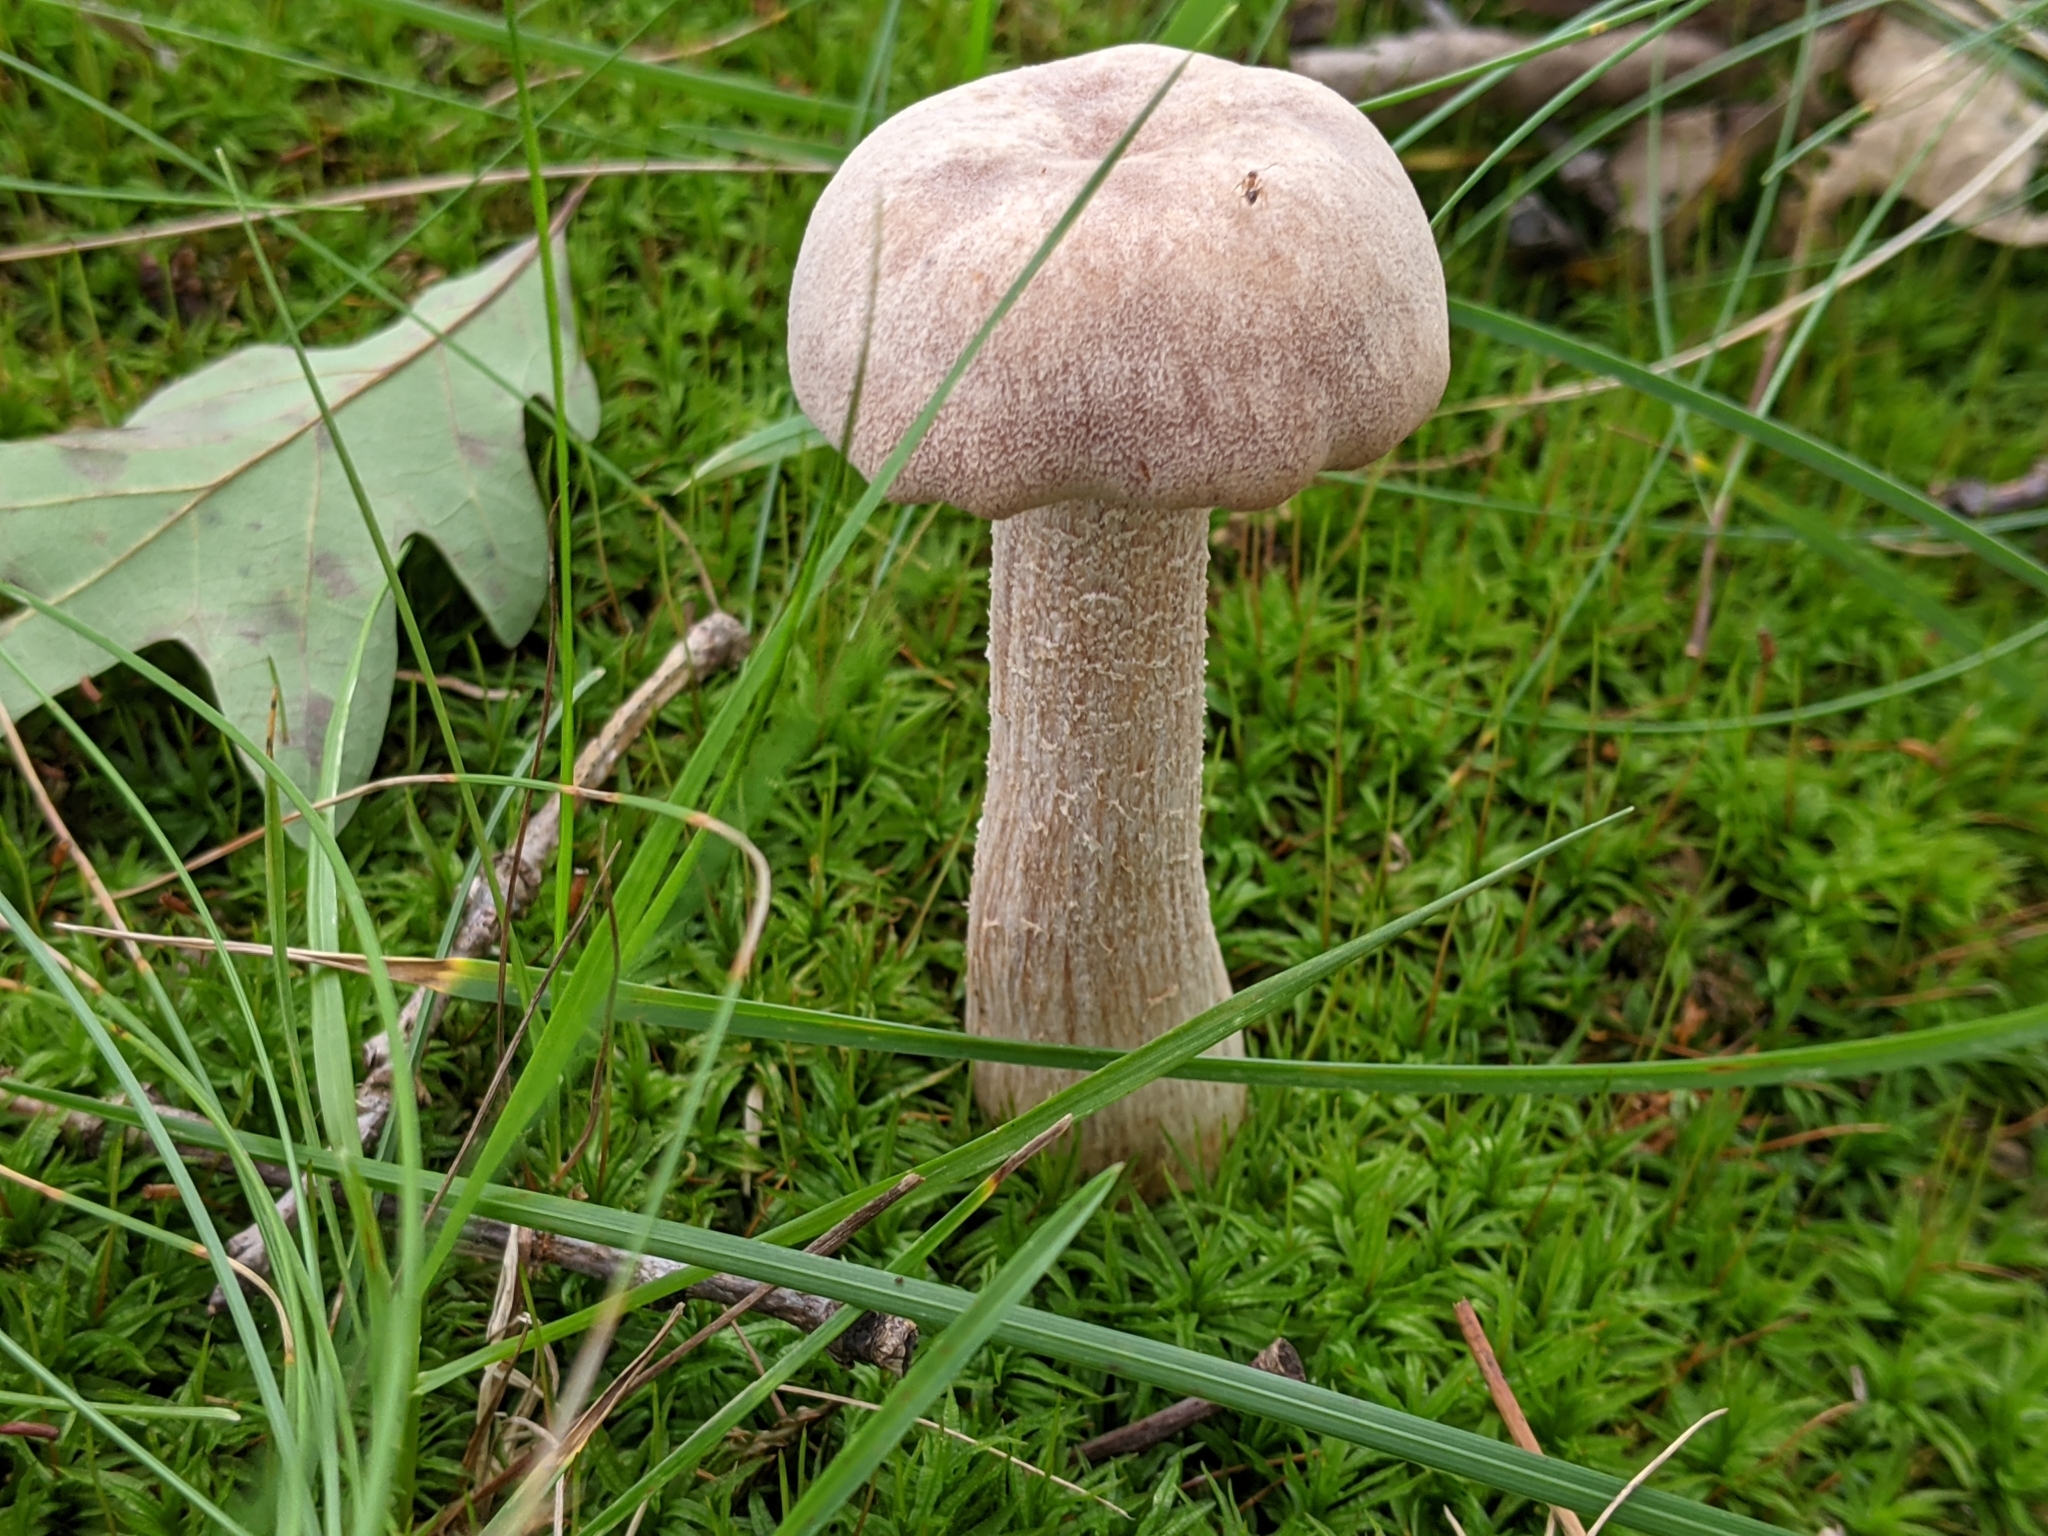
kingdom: Fungi
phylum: Basidiomycota
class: Agaricomycetes
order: Agaricales
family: Hydnangiaceae
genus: Laccaria
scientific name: Laccaria ochropurpurea
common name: Purple laccaria
